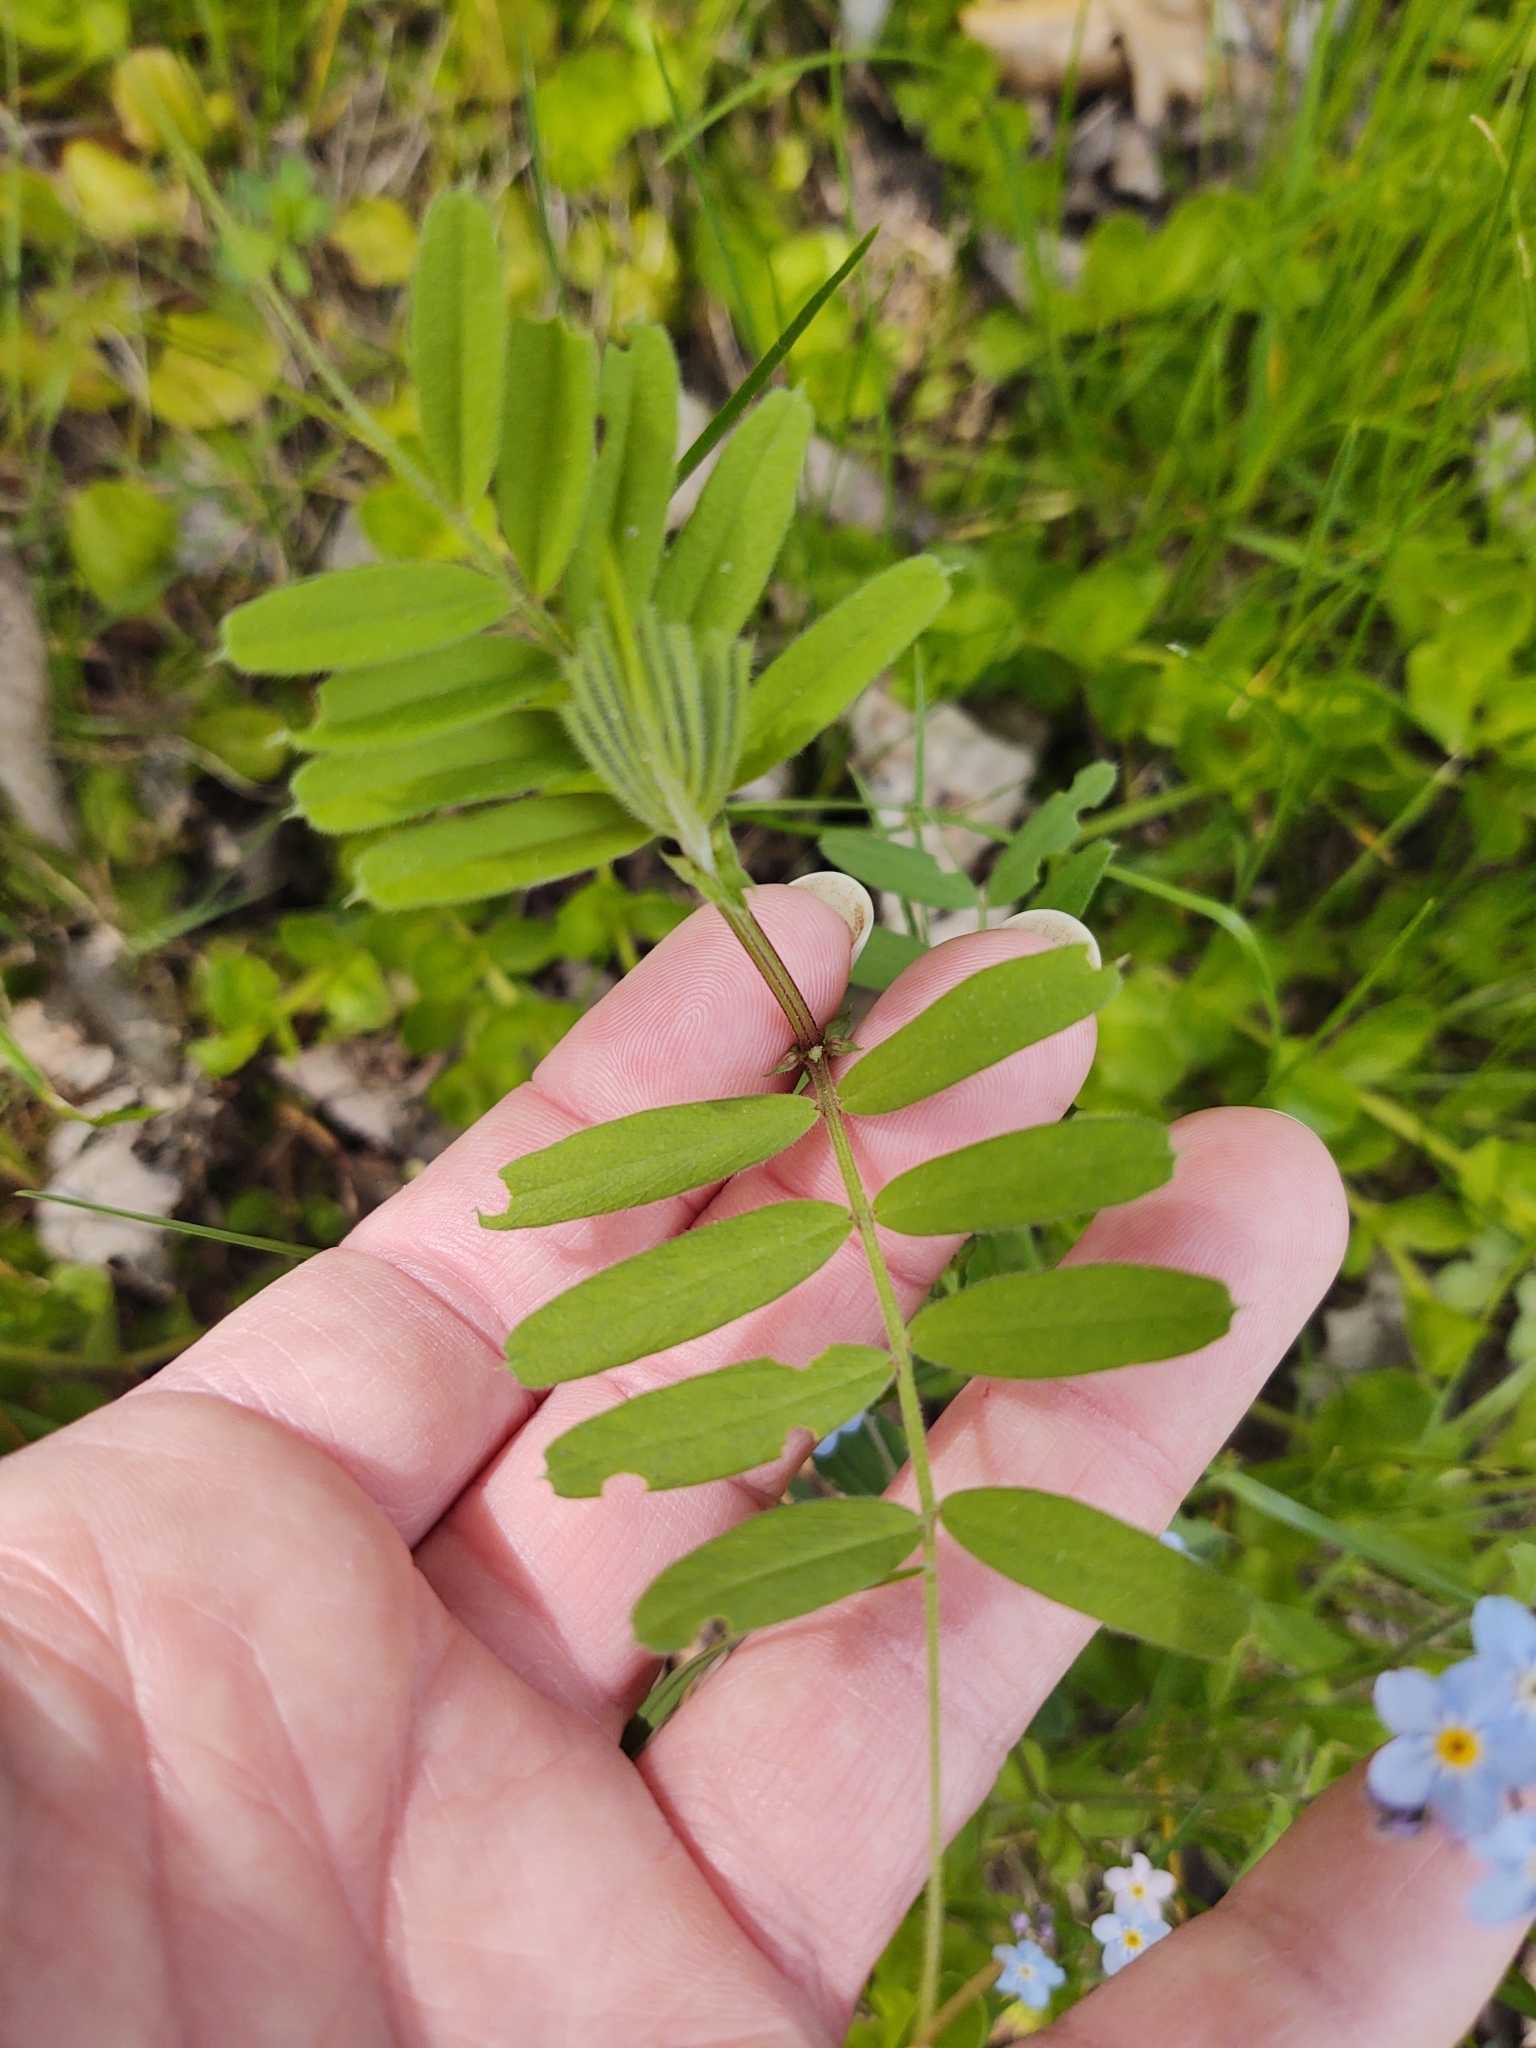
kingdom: Plantae
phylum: Tracheophyta
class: Magnoliopsida
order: Fabales
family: Fabaceae
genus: Vicia
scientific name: Vicia sativa
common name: Garden vetch
